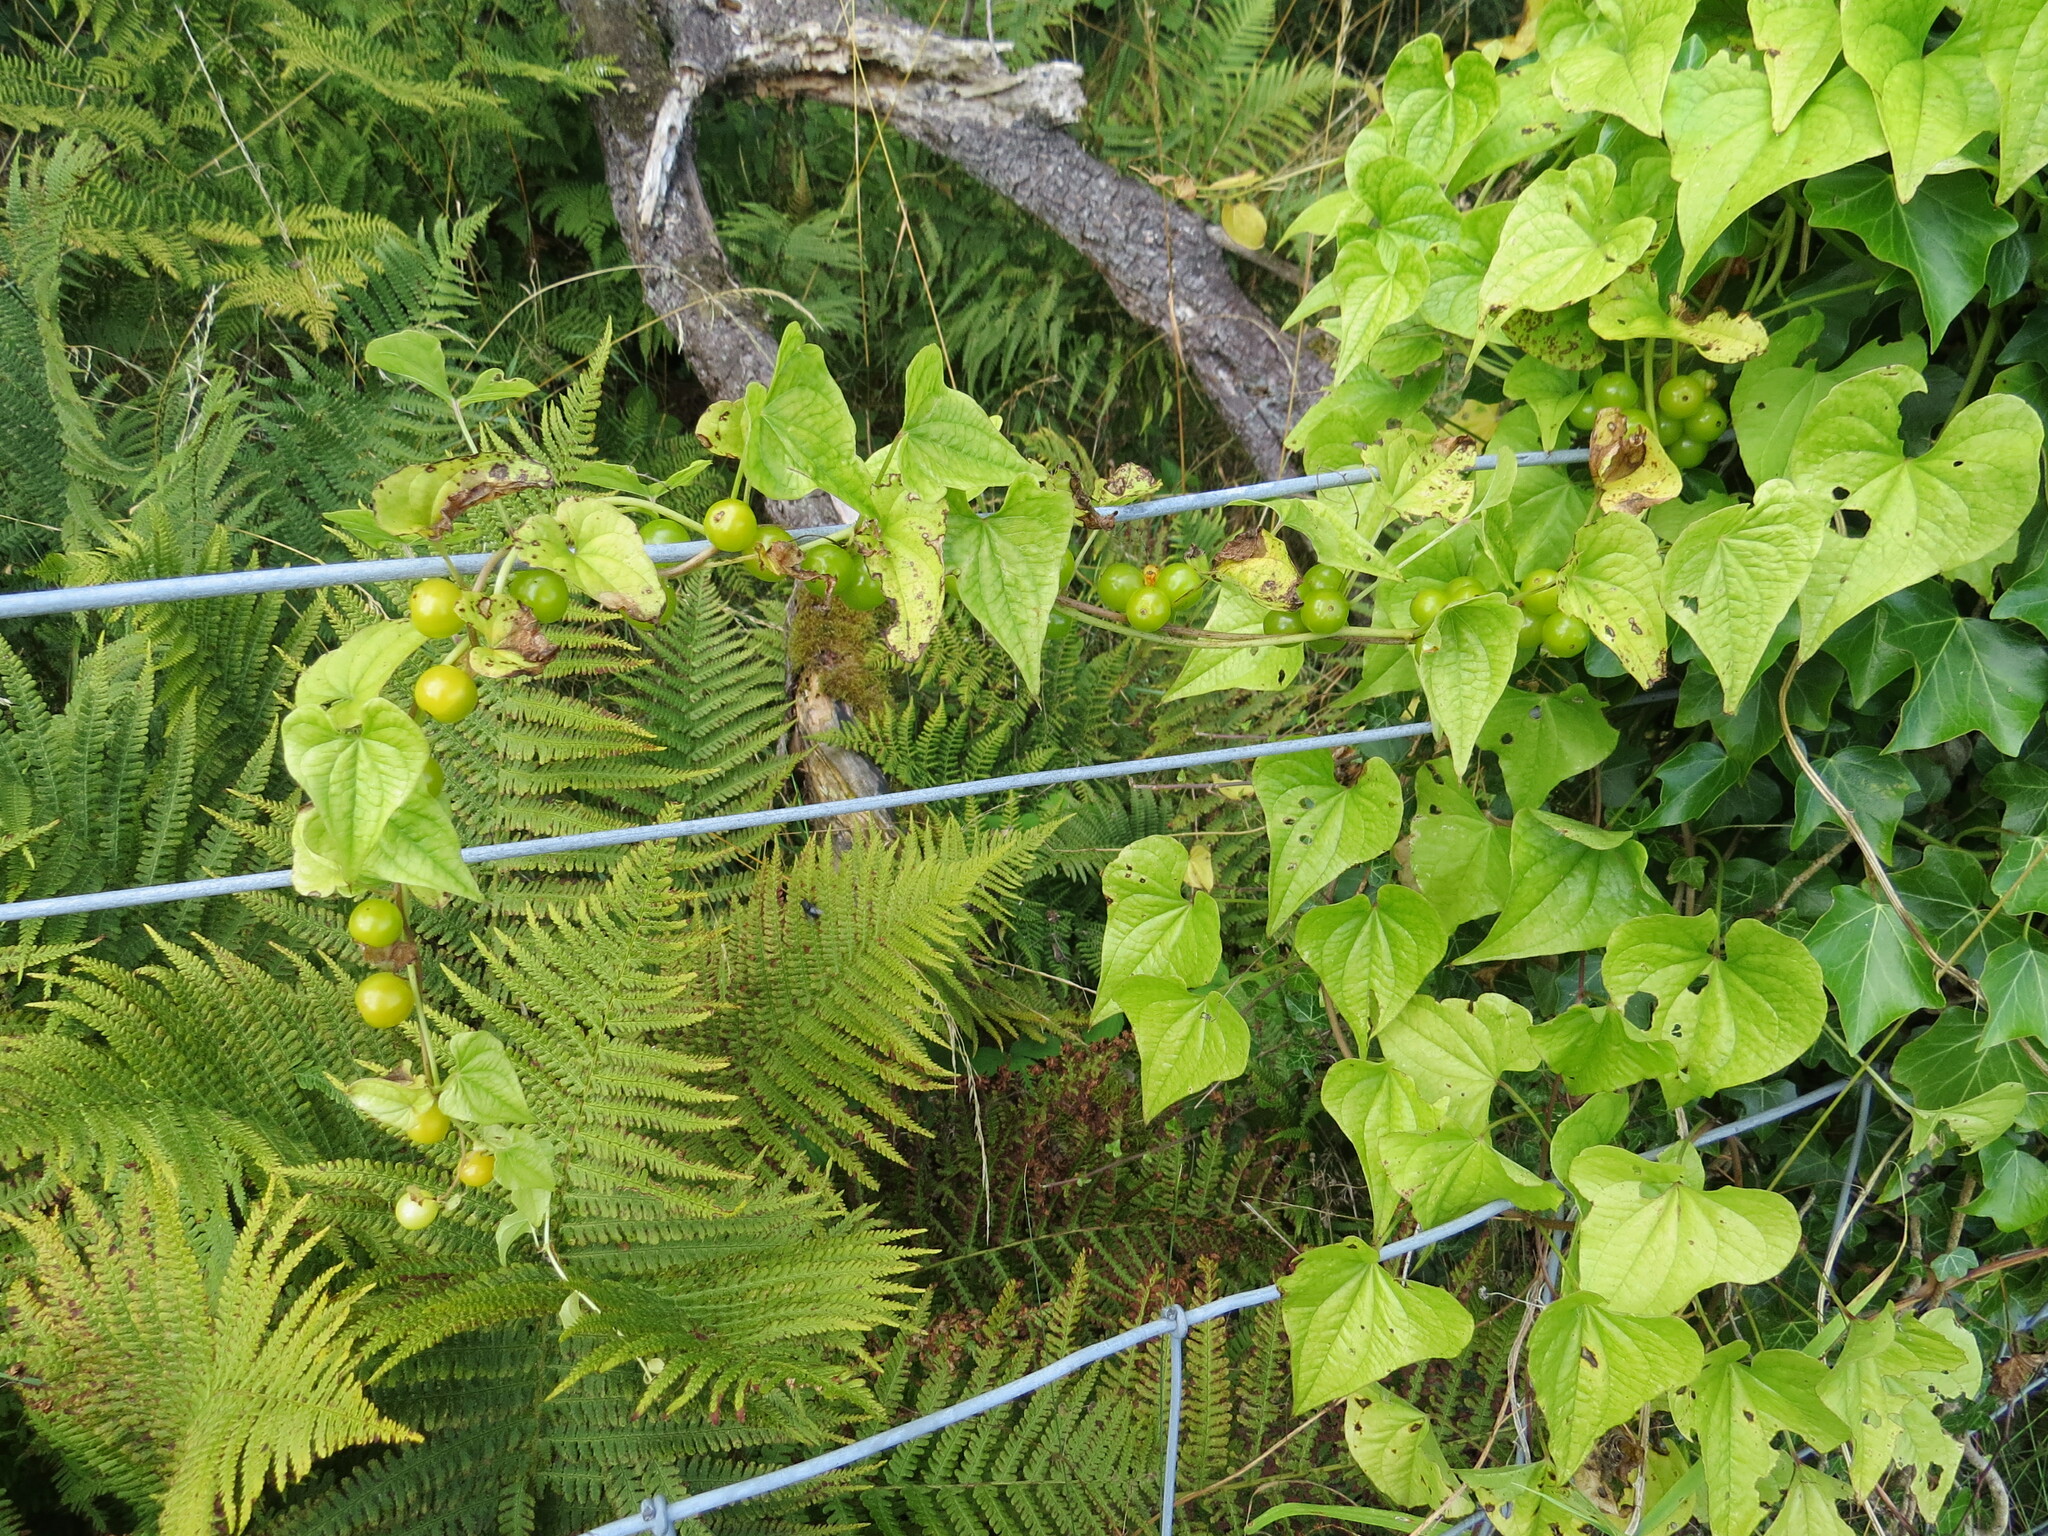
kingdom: Plantae
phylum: Tracheophyta
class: Liliopsida
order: Dioscoreales
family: Dioscoreaceae
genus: Dioscorea
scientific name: Dioscorea communis
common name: Black-bindweed
